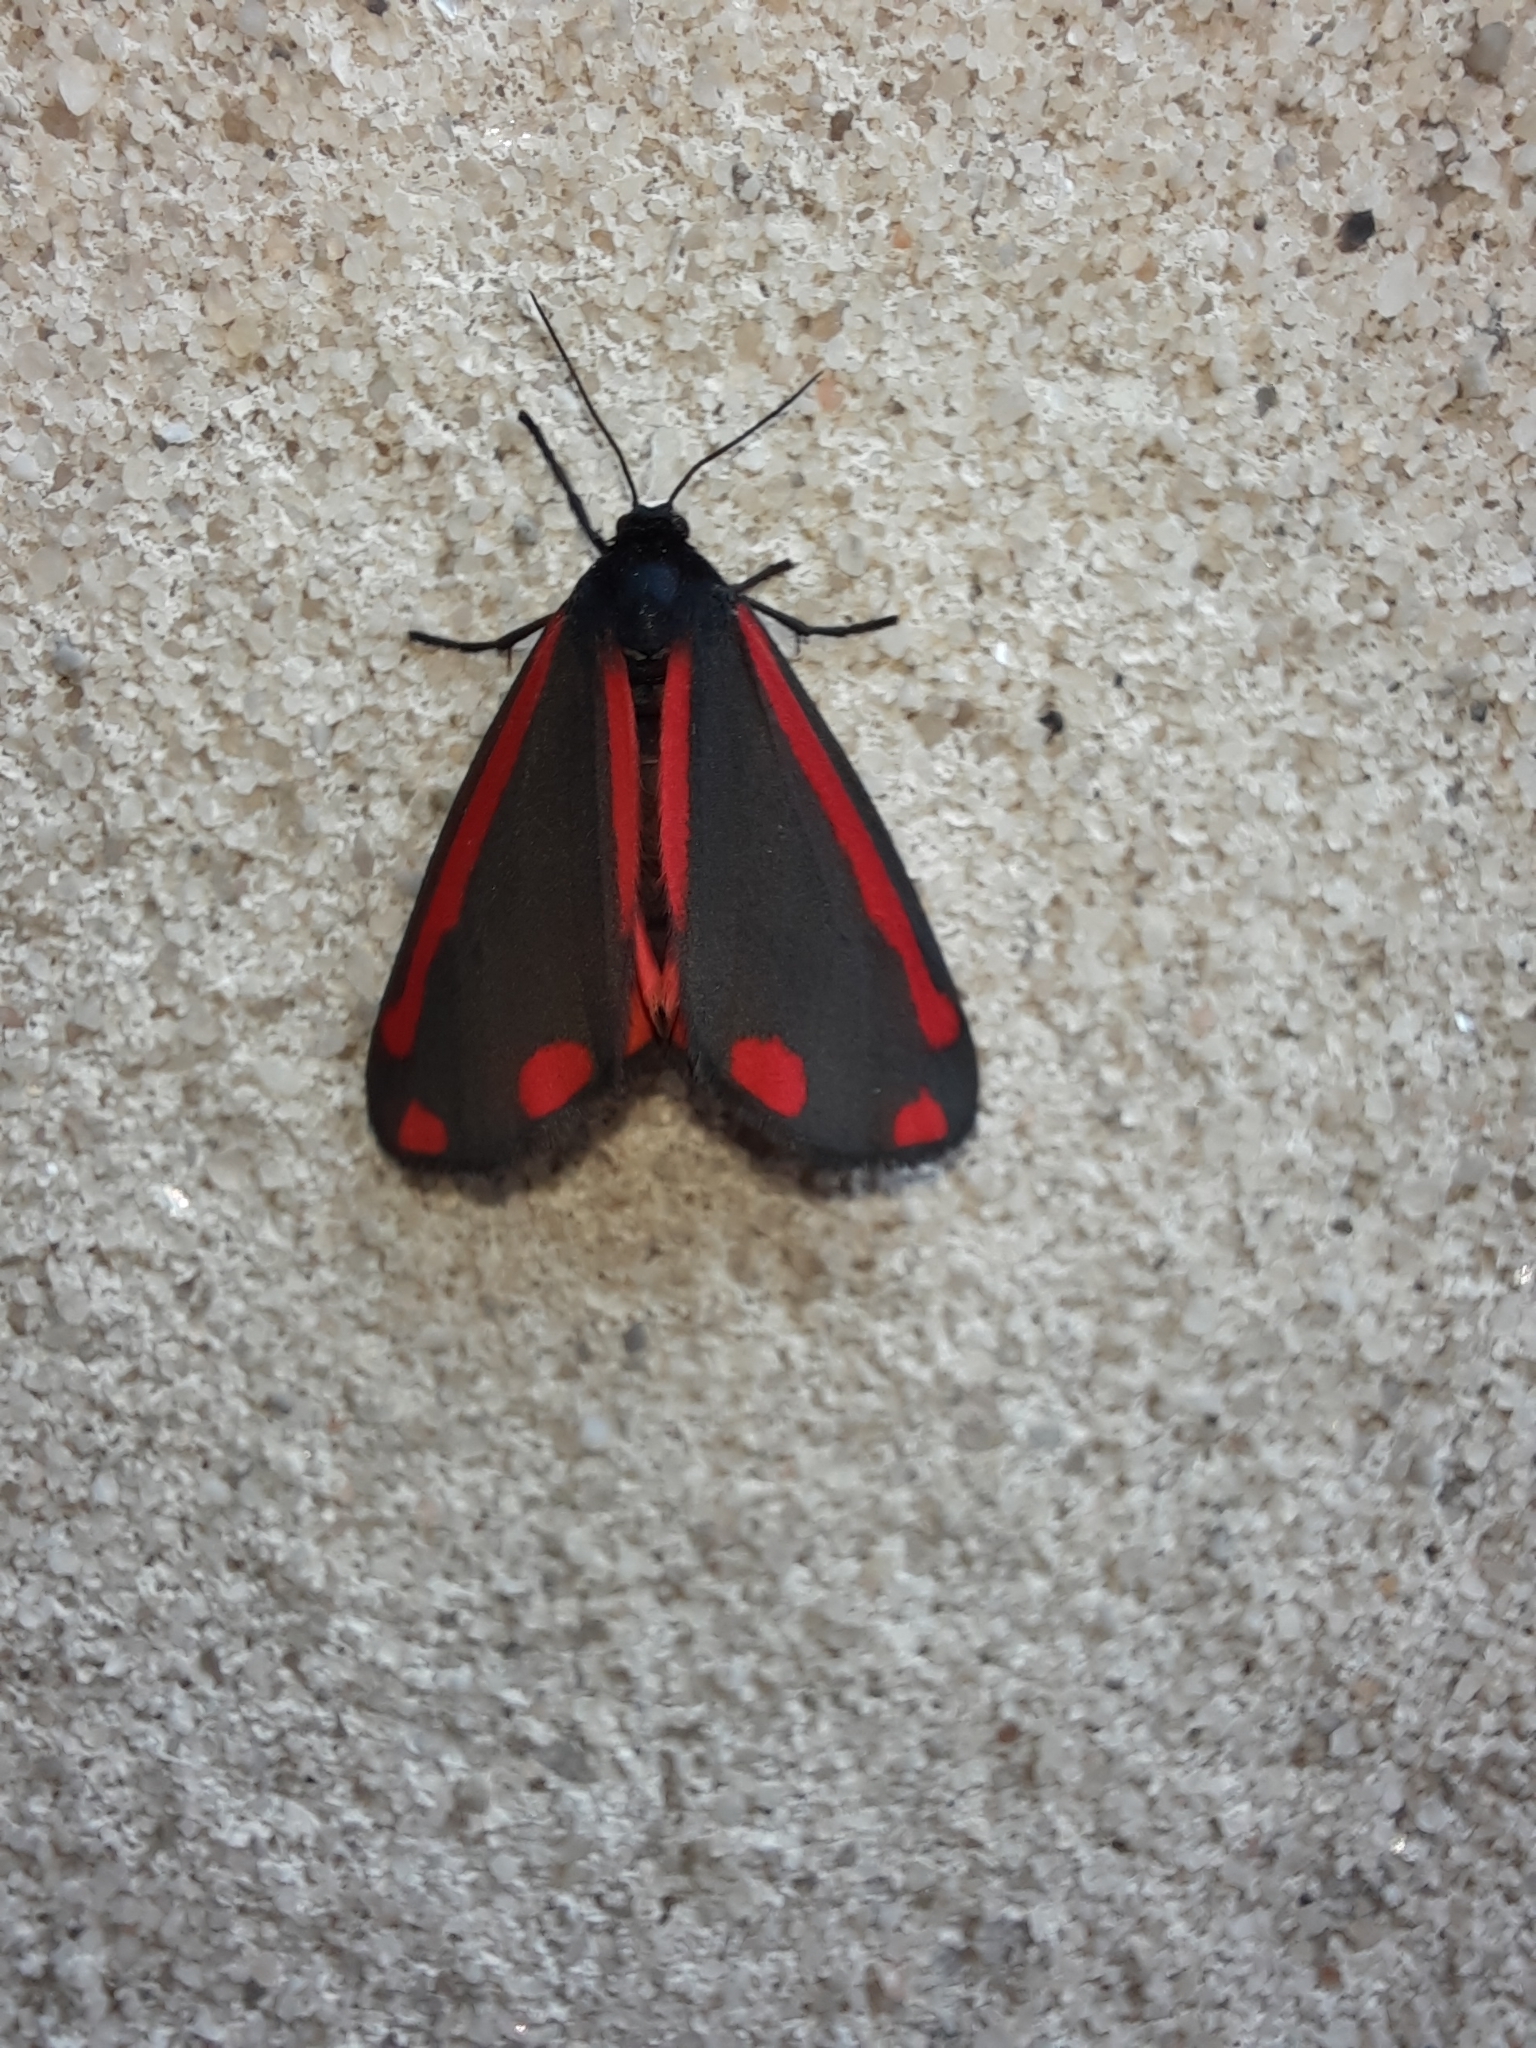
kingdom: Animalia
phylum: Arthropoda
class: Insecta
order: Lepidoptera
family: Erebidae
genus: Tyria
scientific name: Tyria jacobaeae
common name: Cinnabar
